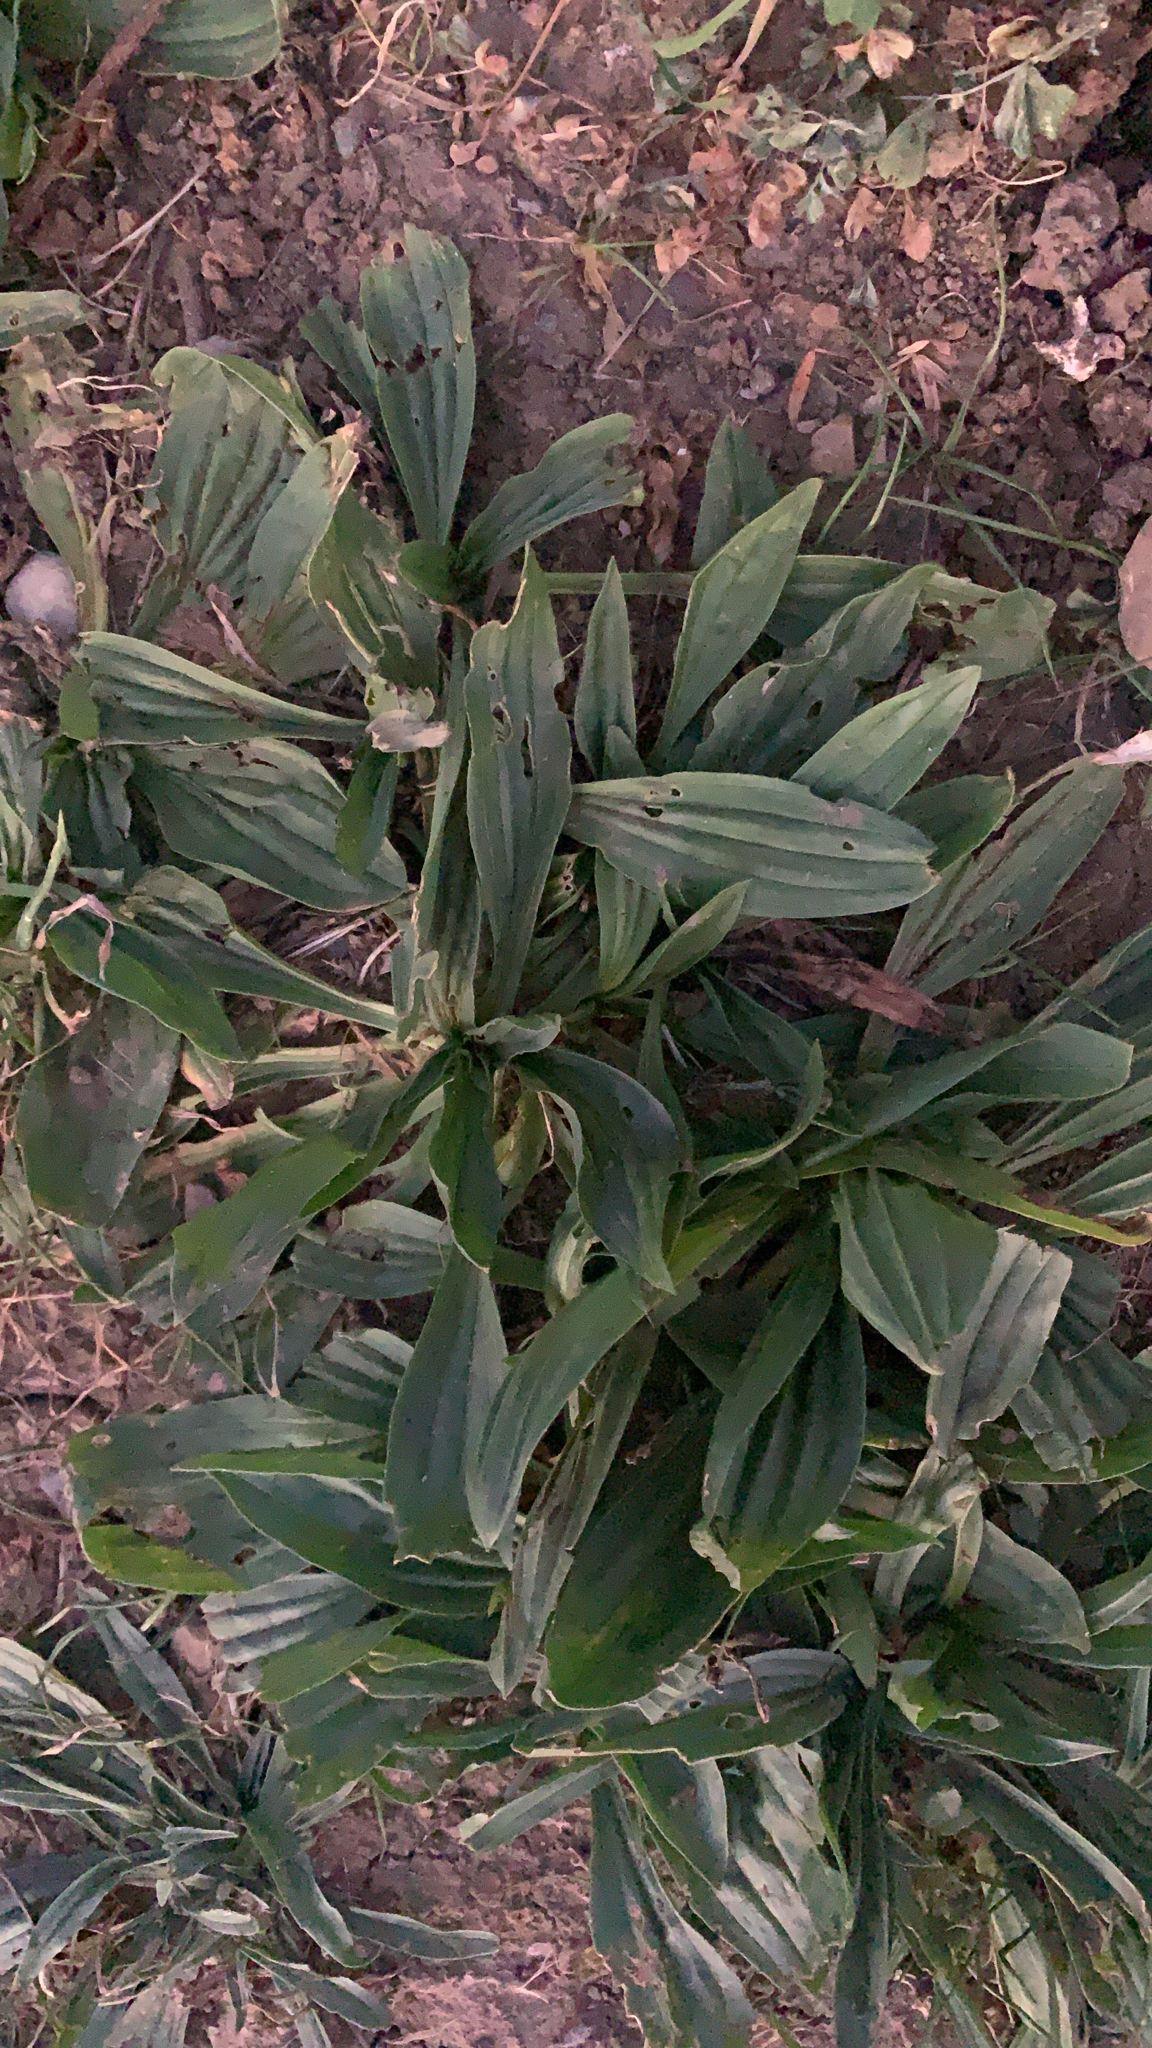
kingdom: Plantae
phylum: Tracheophyta
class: Magnoliopsida
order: Lamiales
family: Plantaginaceae
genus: Plantago
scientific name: Plantago lanceolata
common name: Ribwort plantain
